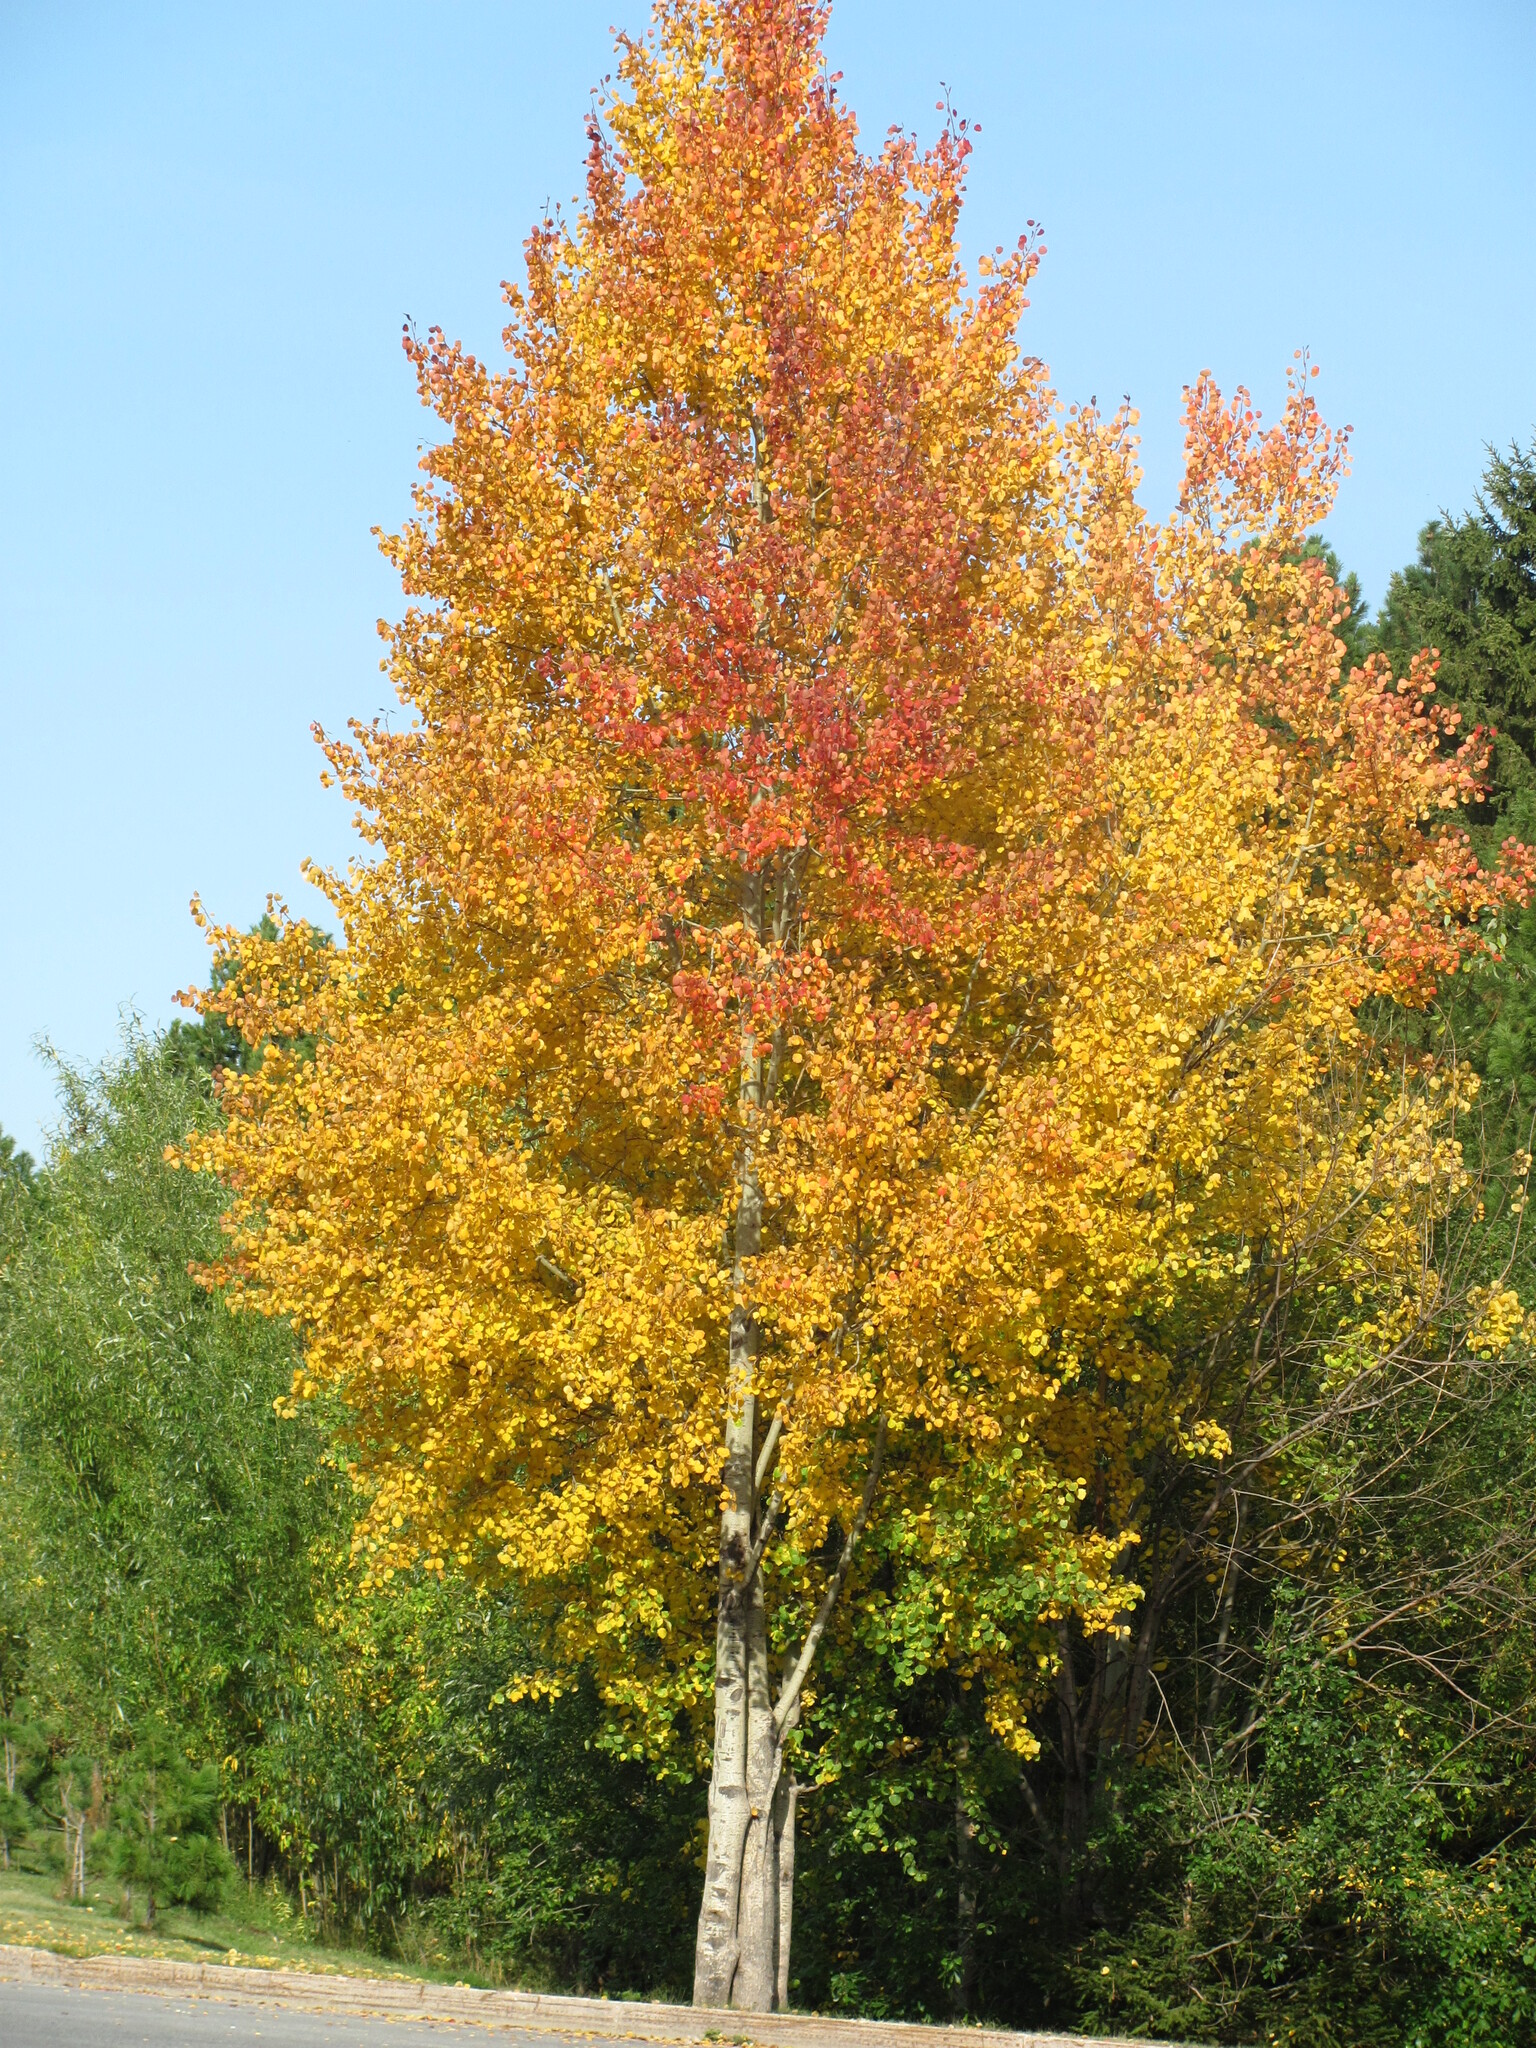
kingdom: Plantae
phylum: Tracheophyta
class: Magnoliopsida
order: Malpighiales
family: Salicaceae
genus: Populus
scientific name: Populus tremula
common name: European aspen
